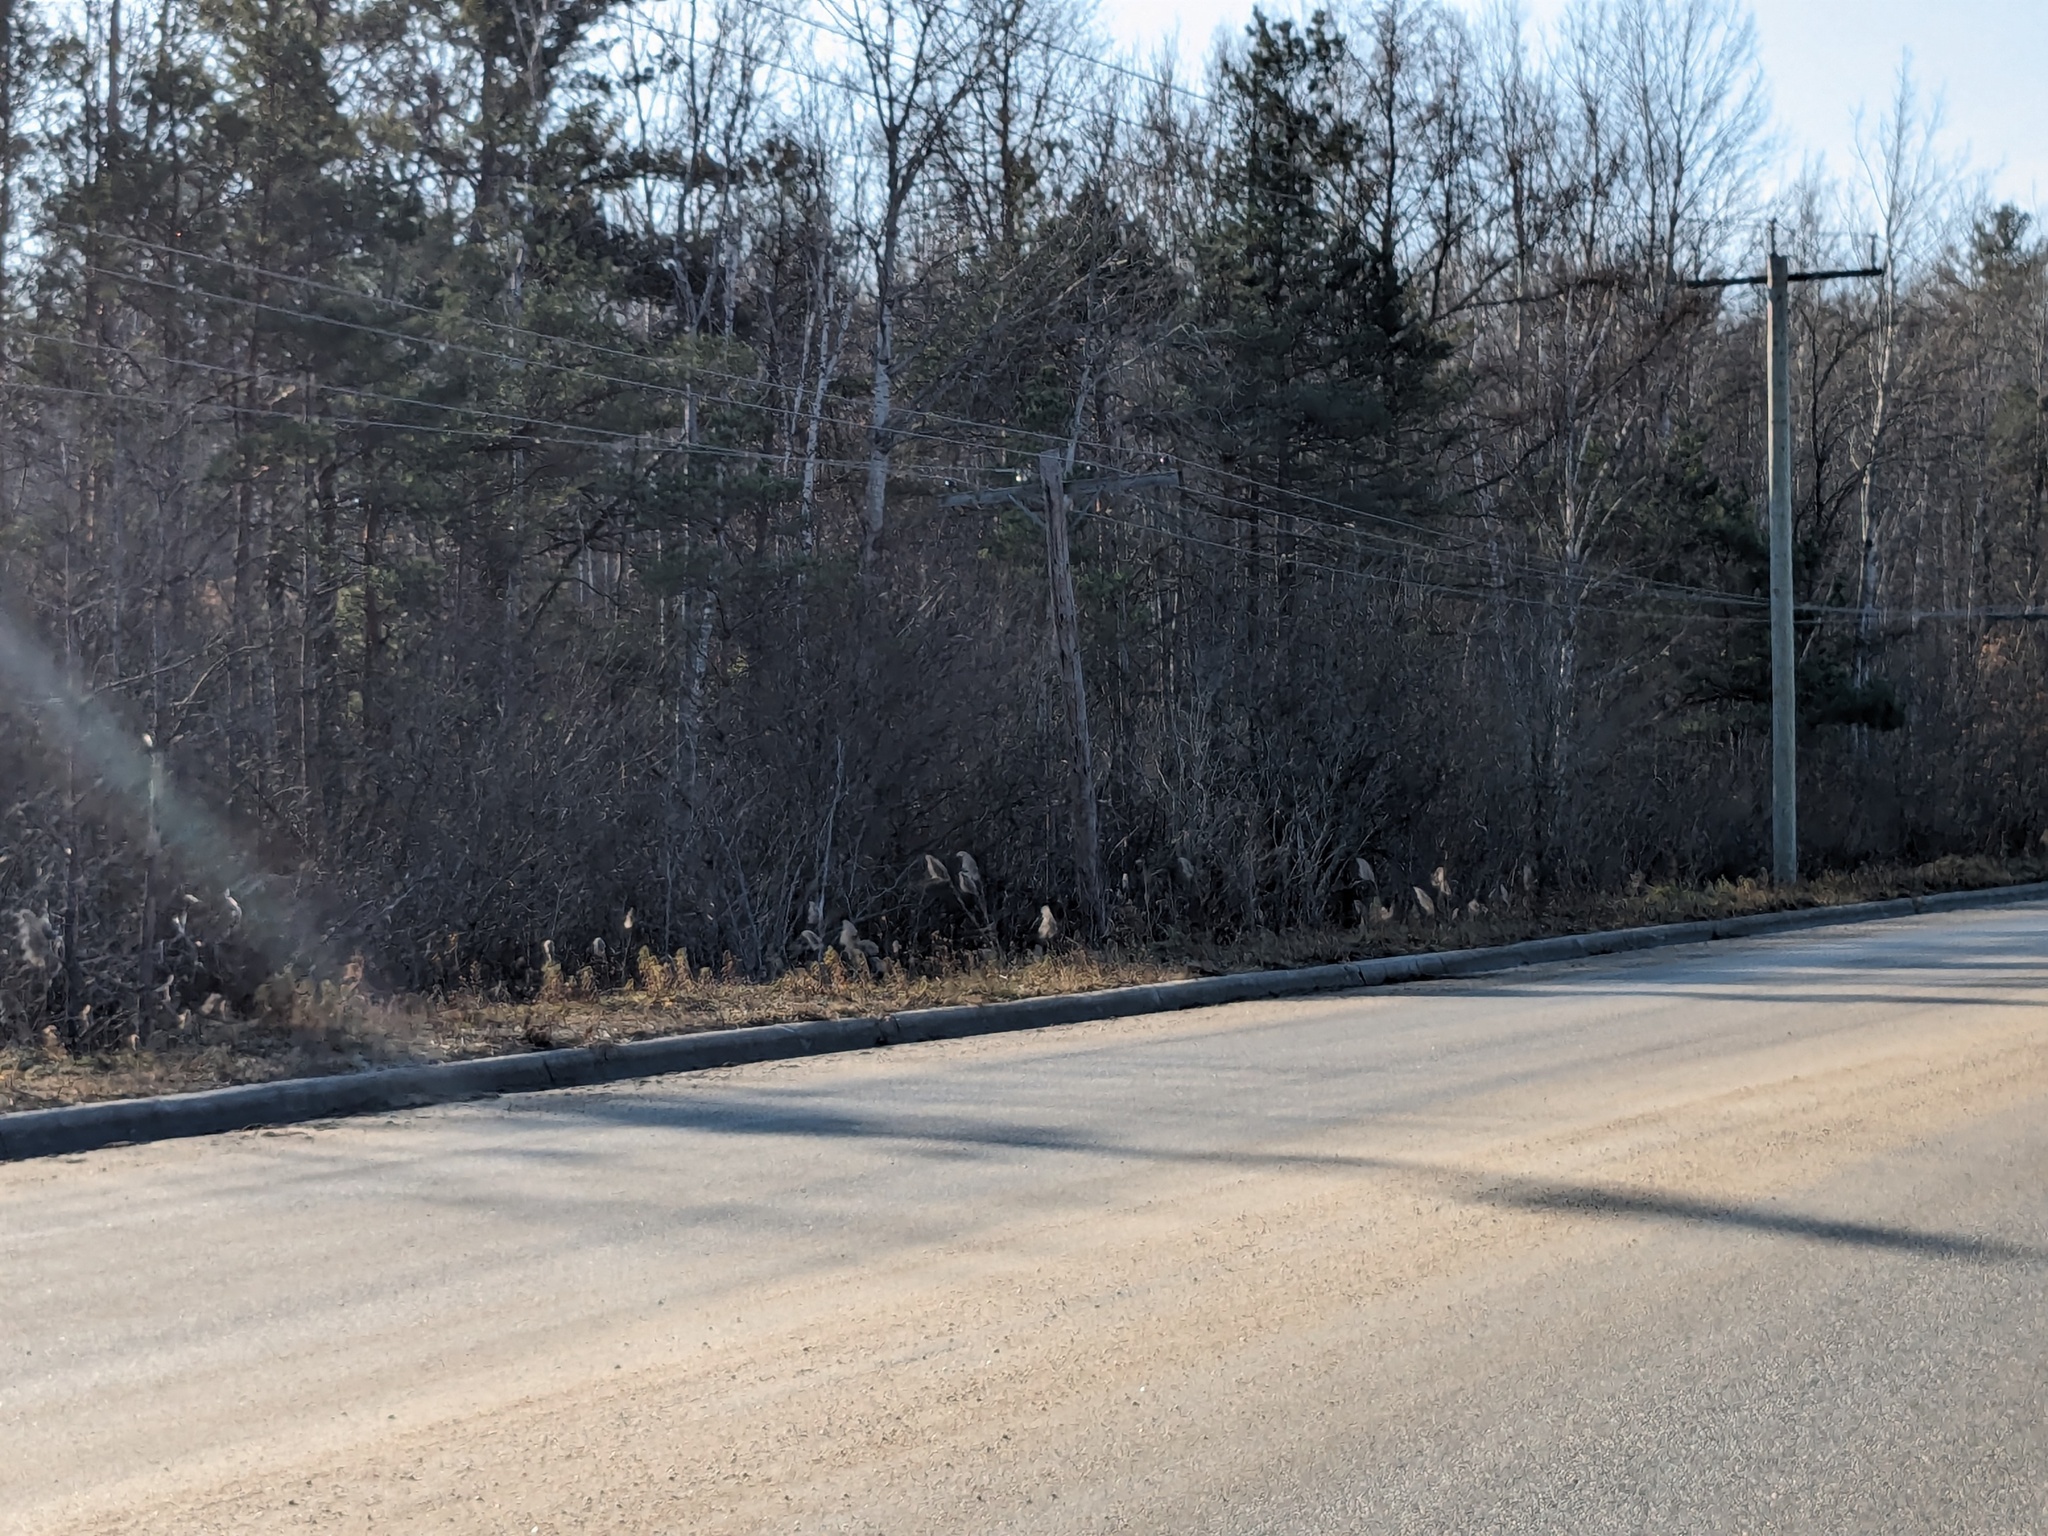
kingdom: Plantae
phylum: Tracheophyta
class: Liliopsida
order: Poales
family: Poaceae
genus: Phragmites
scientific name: Phragmites australis
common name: Common reed
